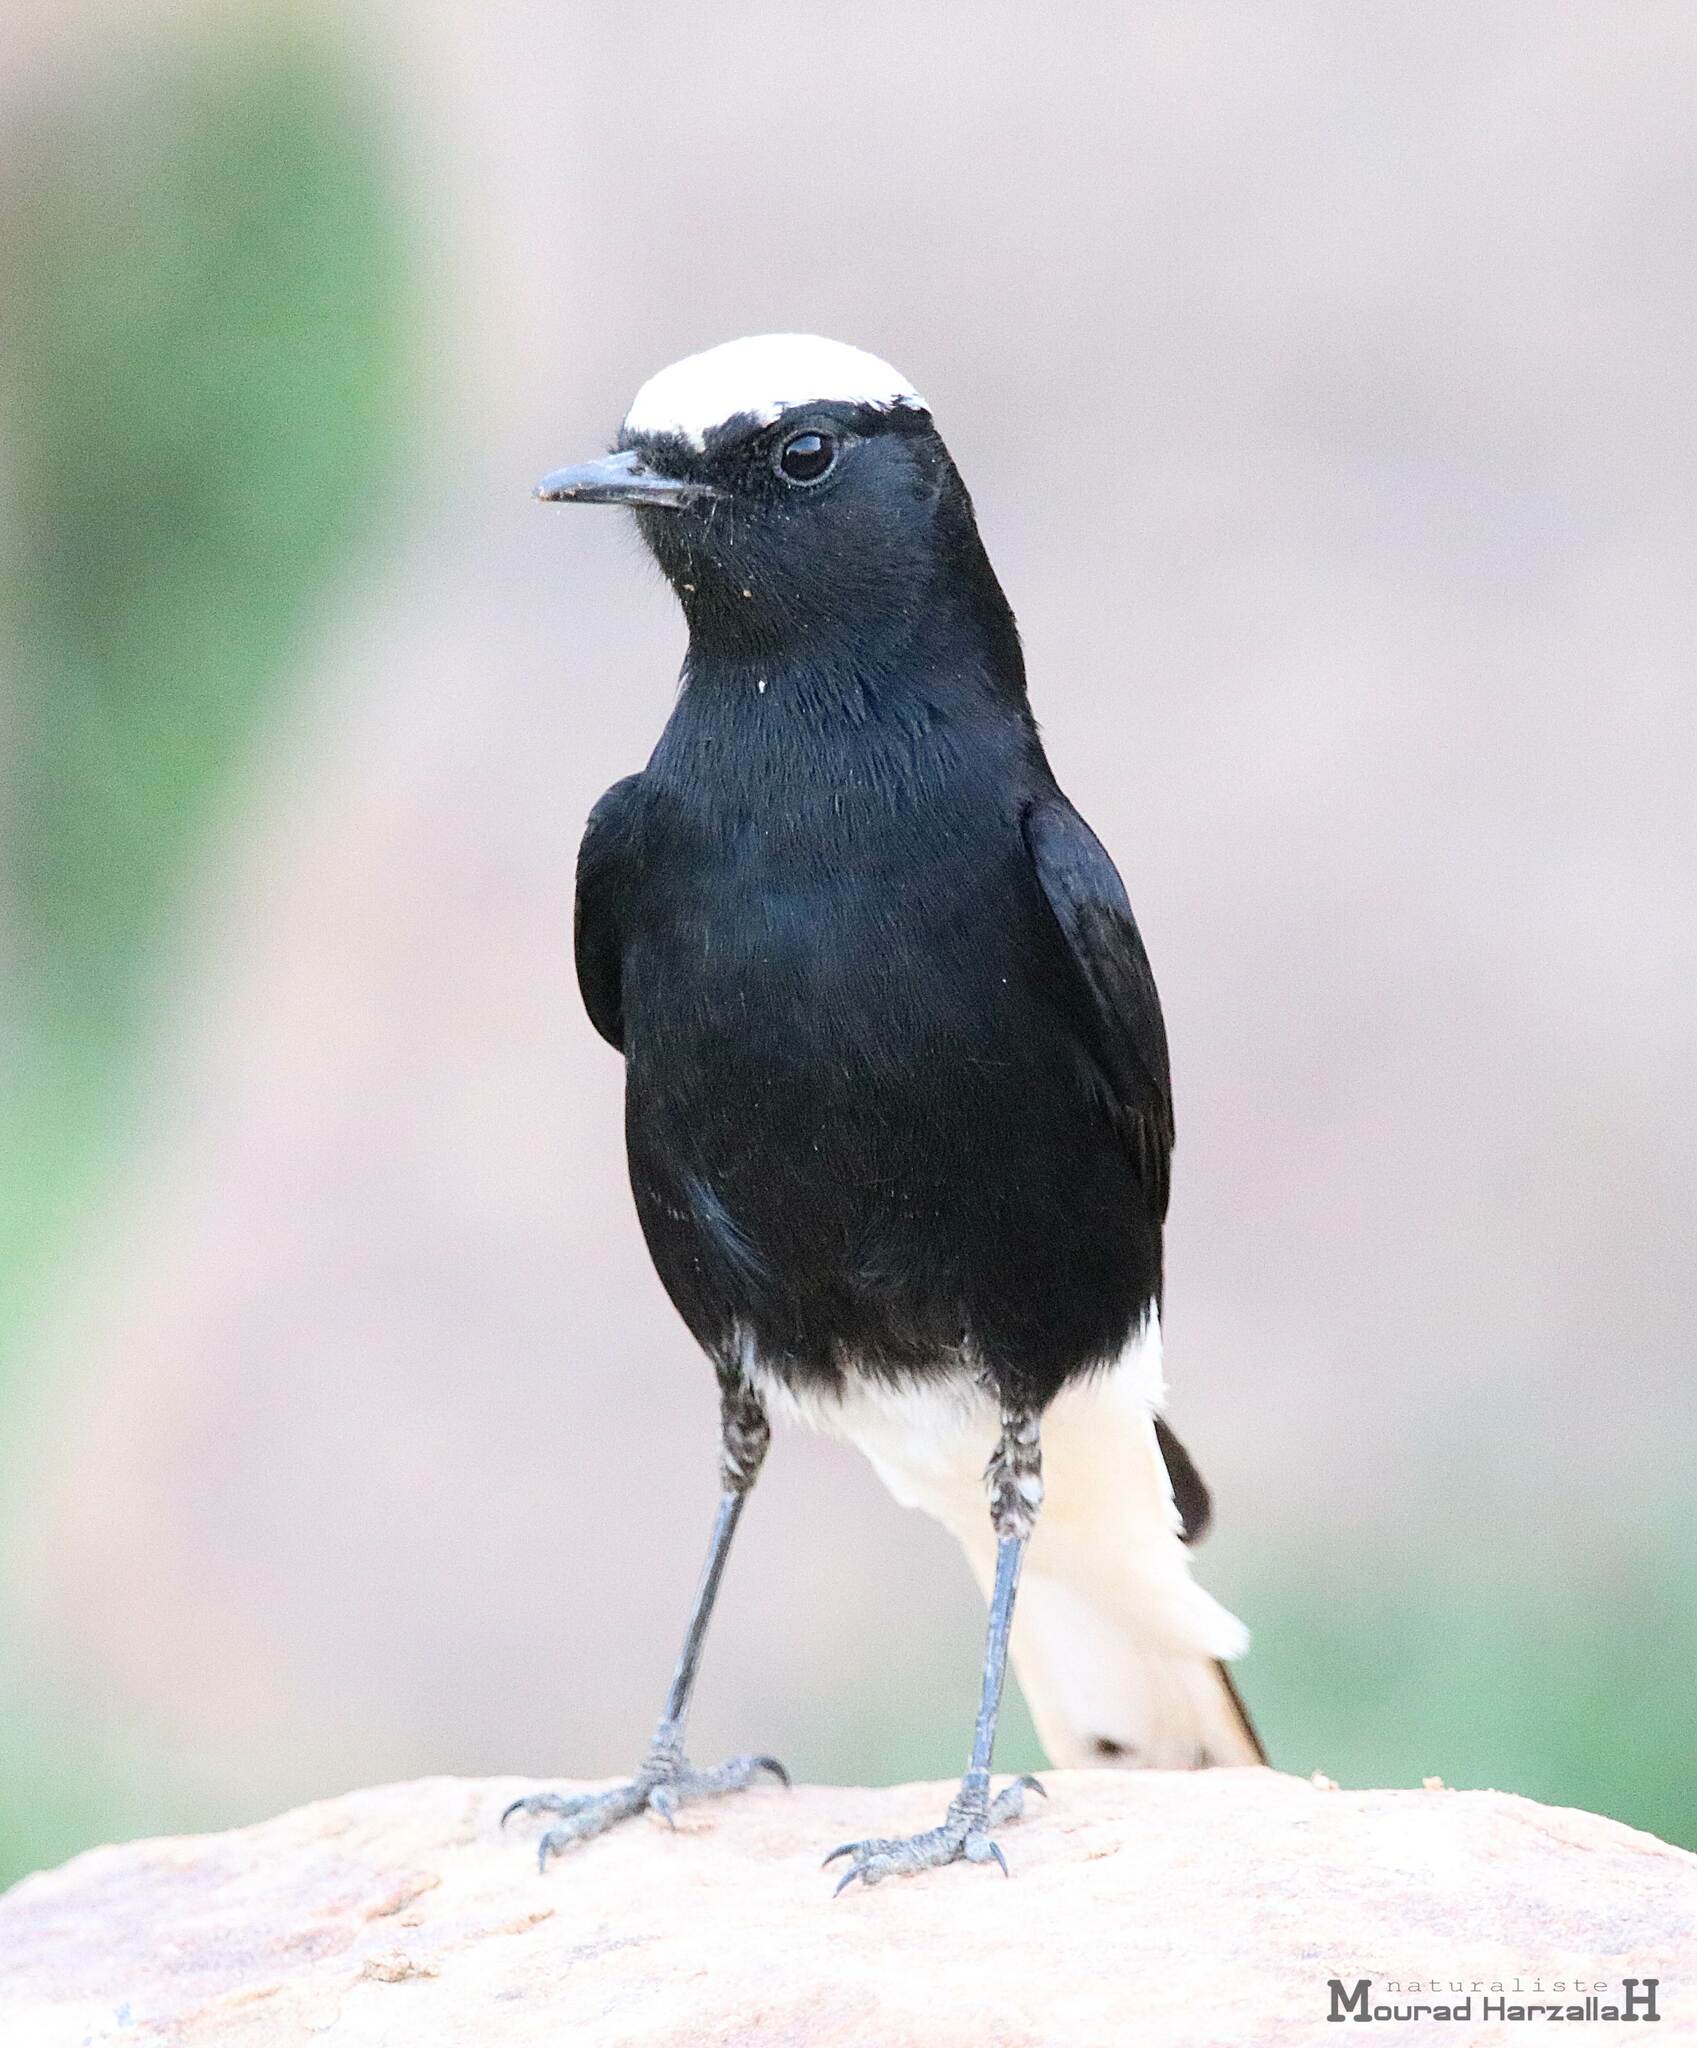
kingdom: Animalia
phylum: Chordata
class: Aves
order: Passeriformes
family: Muscicapidae
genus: Oenanthe
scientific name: Oenanthe leucopyga
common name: White-crowned wheatear
